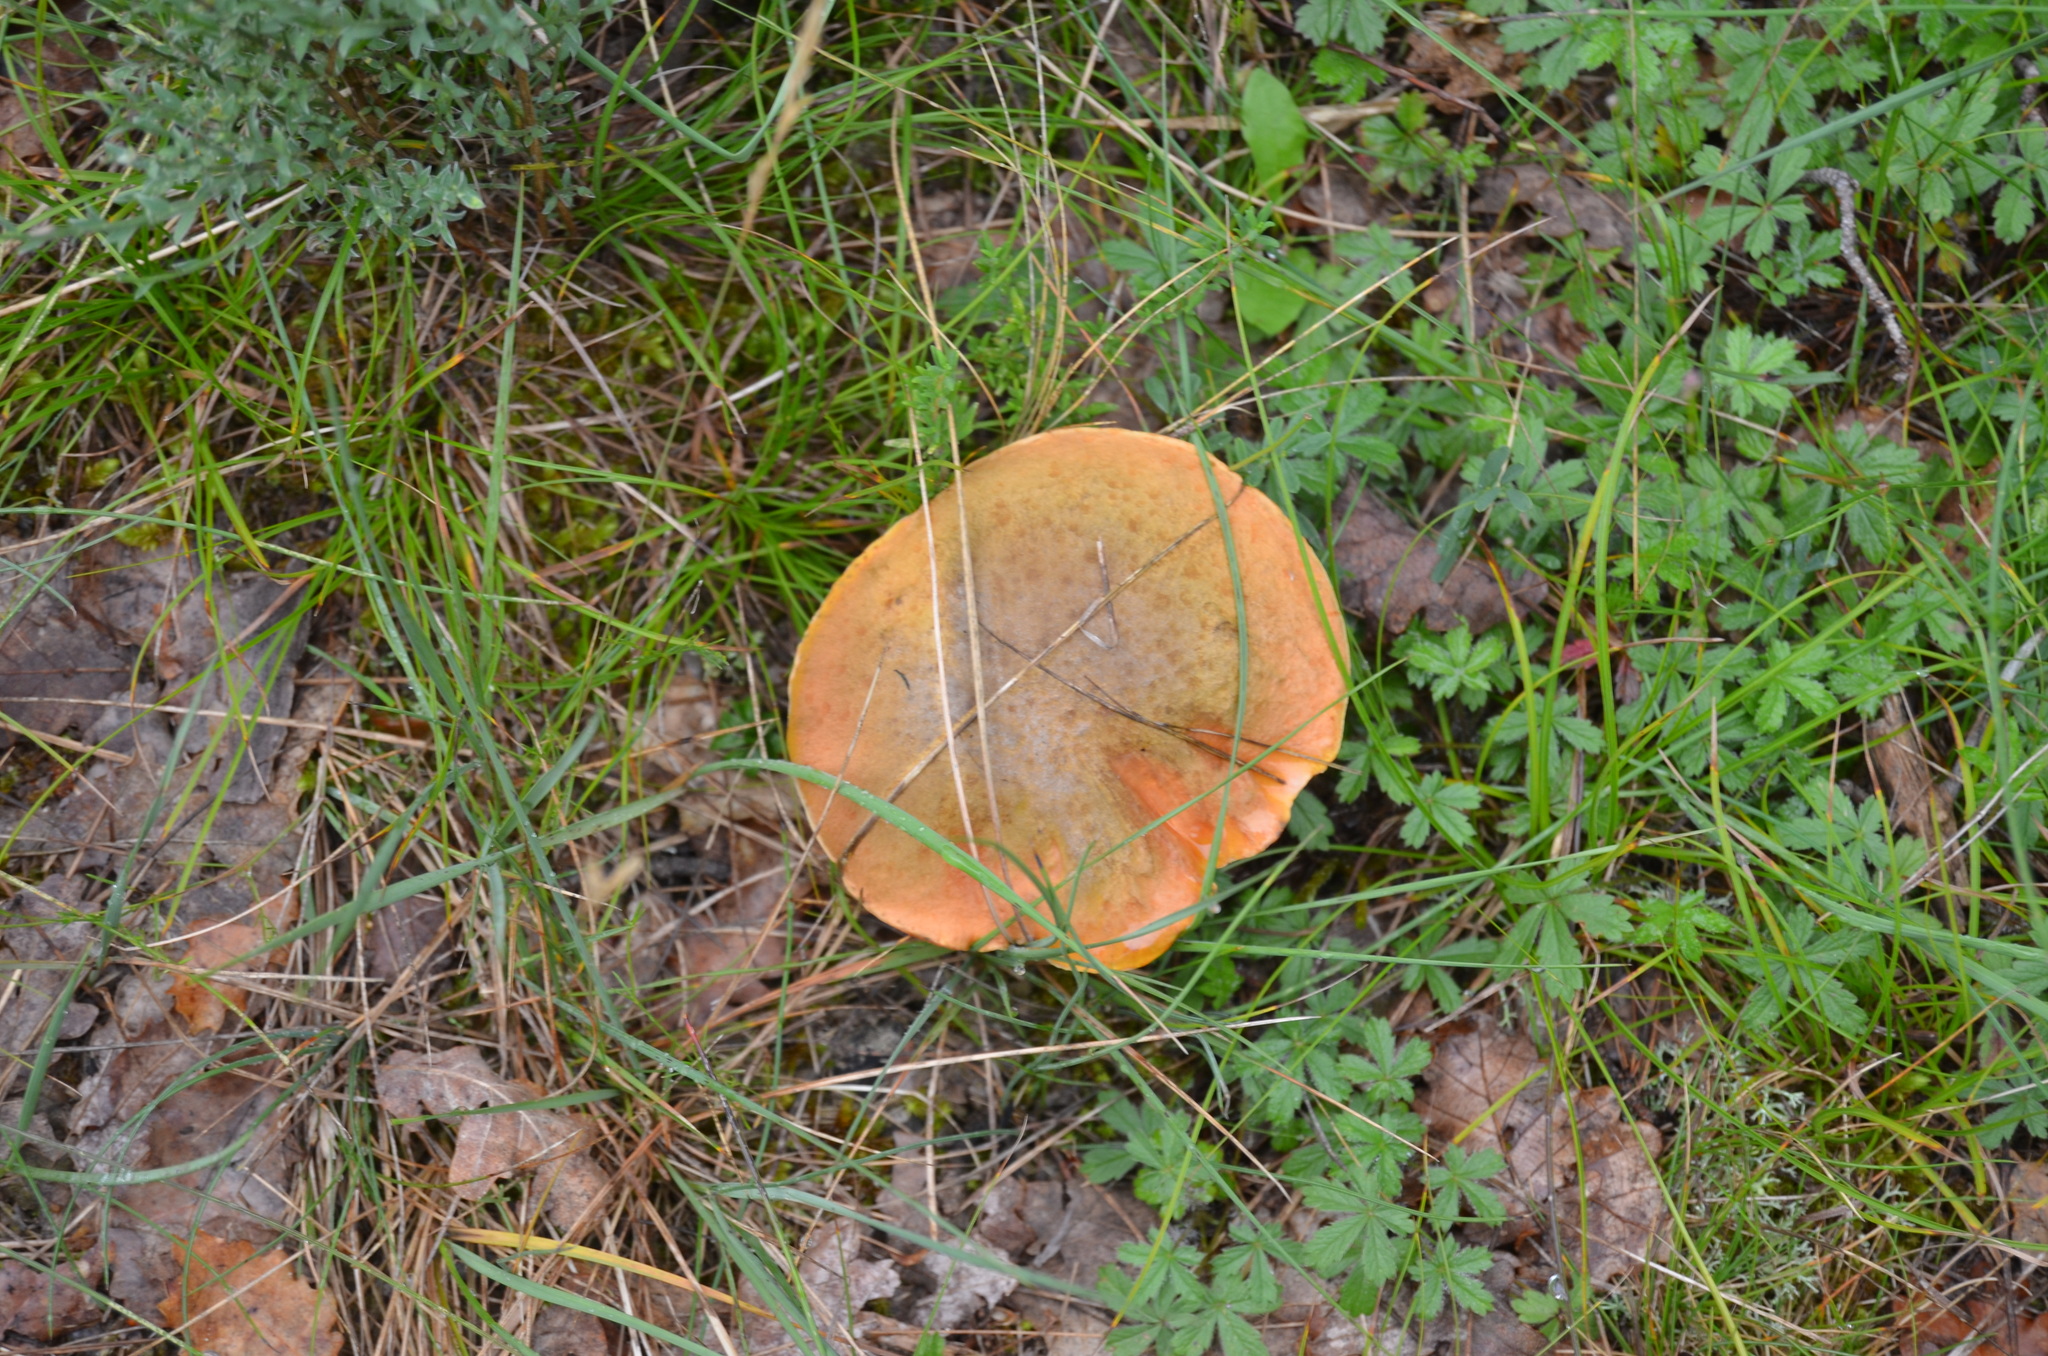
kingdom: Fungi
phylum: Basidiomycota
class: Agaricomycetes
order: Boletales
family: Boletaceae
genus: Suillellus
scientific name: Suillellus luridus
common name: Lurid bolete
